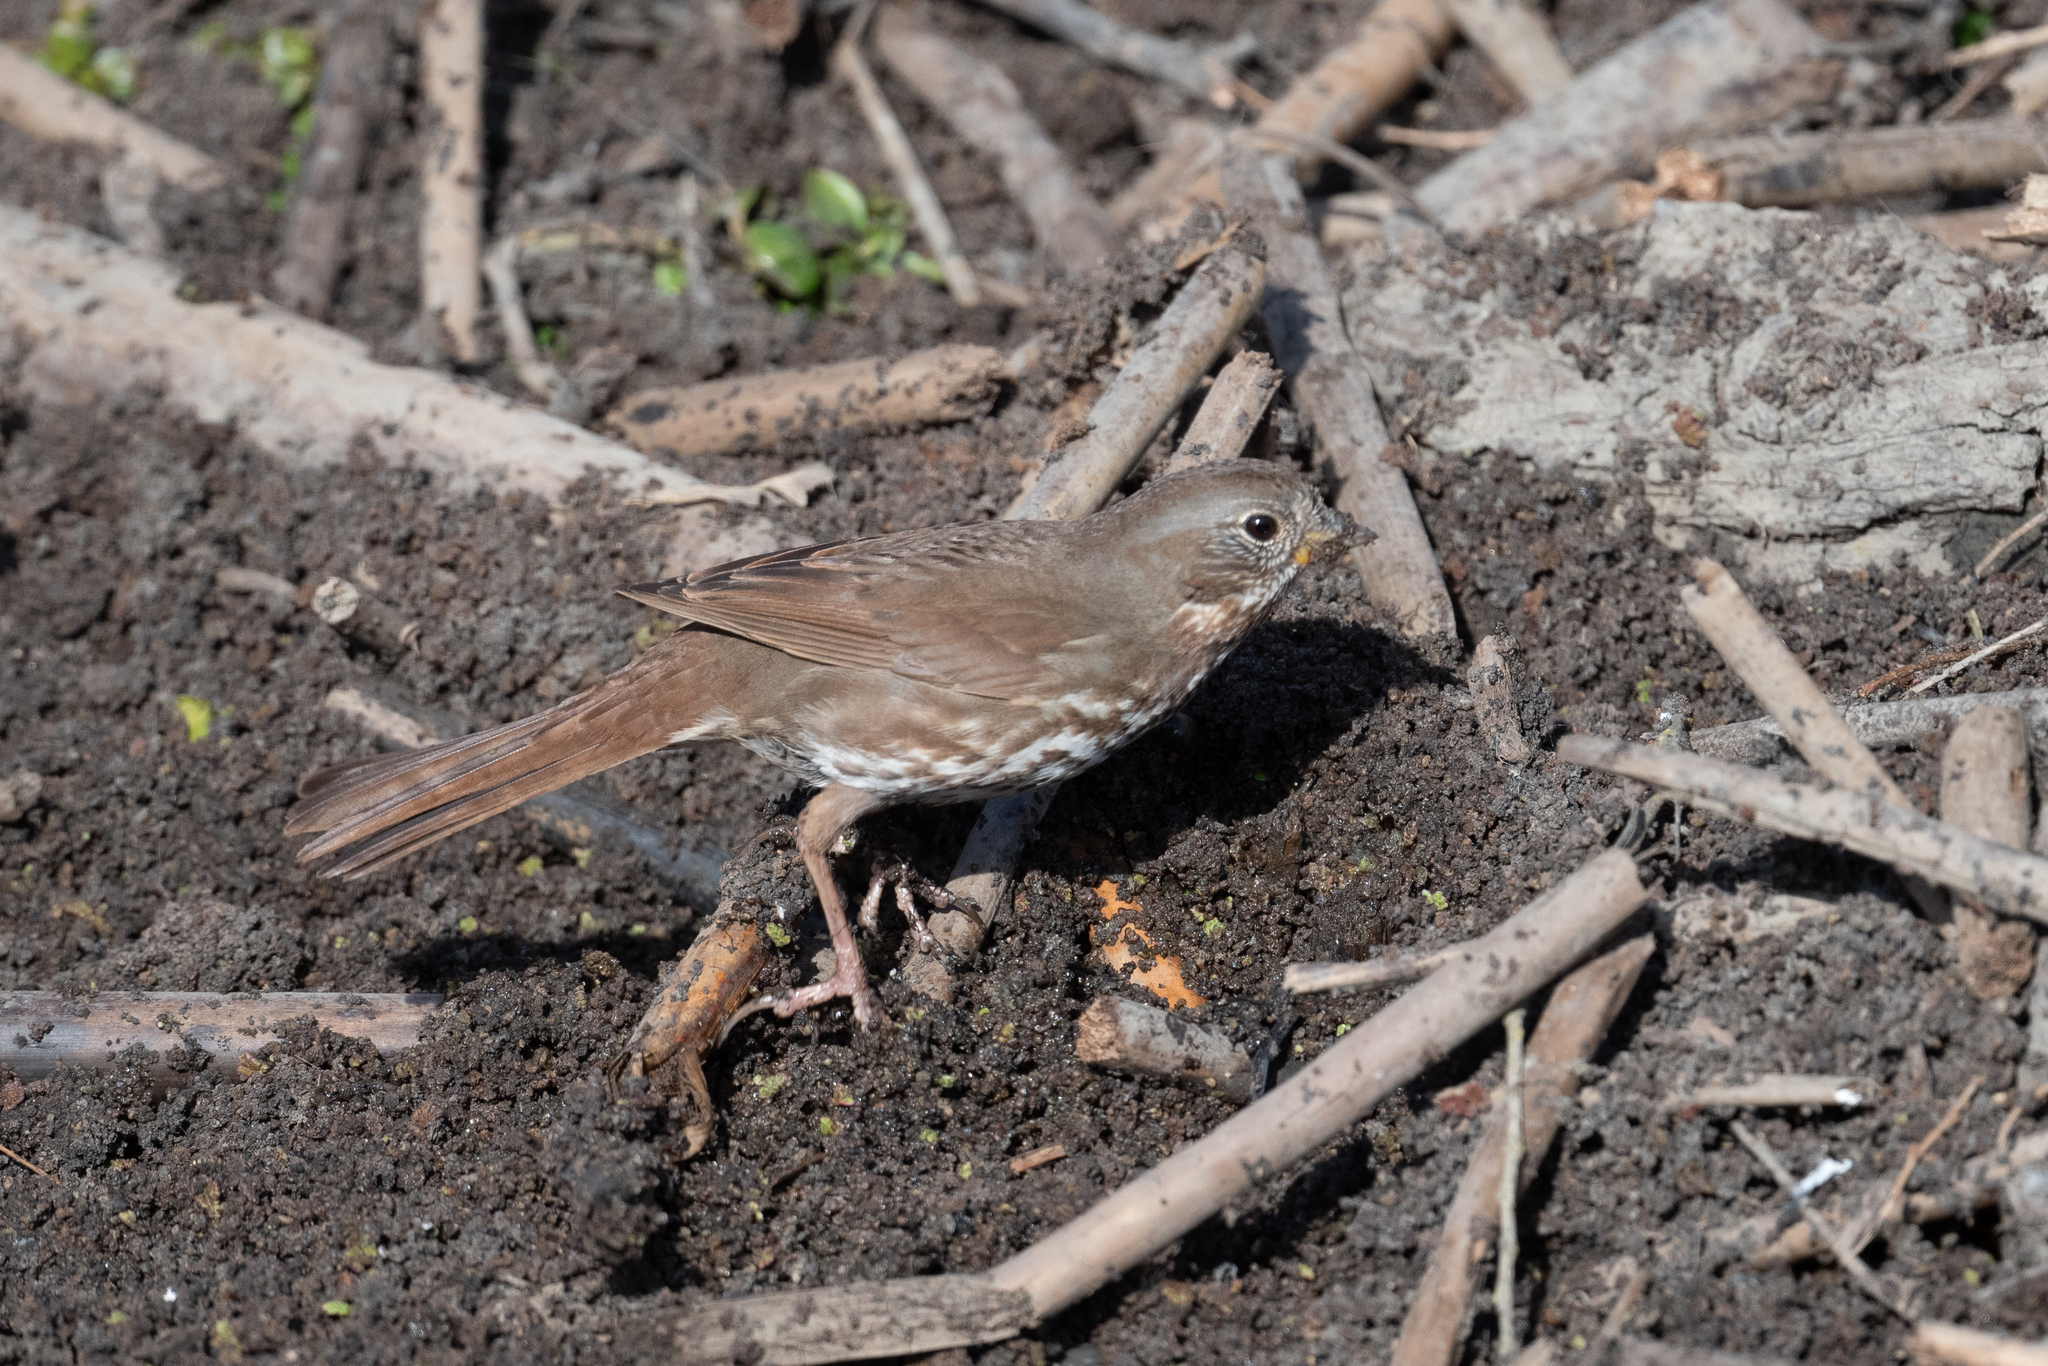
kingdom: Animalia
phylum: Chordata
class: Aves
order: Passeriformes
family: Passerellidae
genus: Passerella
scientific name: Passerella iliaca
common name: Fox sparrow
